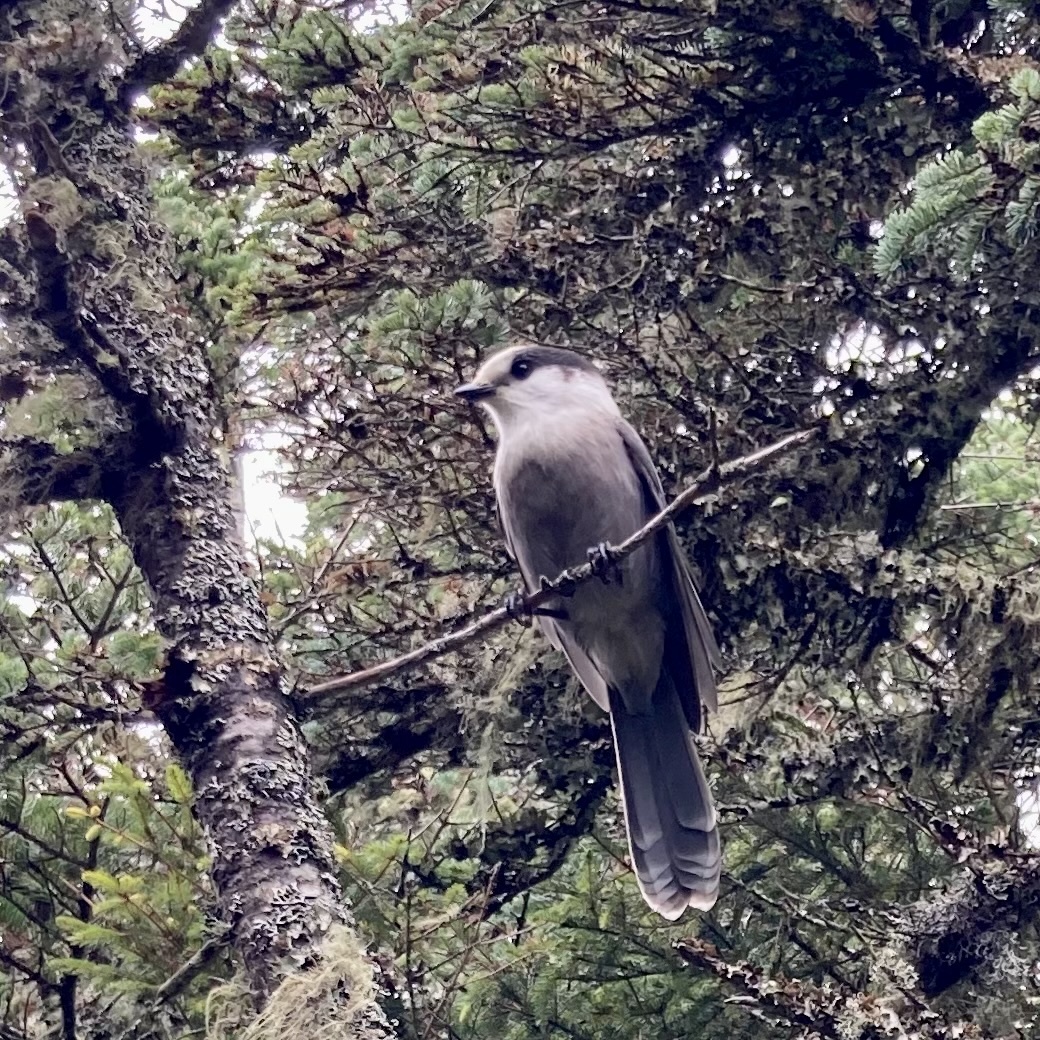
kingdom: Animalia
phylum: Chordata
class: Aves
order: Passeriformes
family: Corvidae
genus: Perisoreus
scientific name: Perisoreus canadensis
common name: Gray jay
